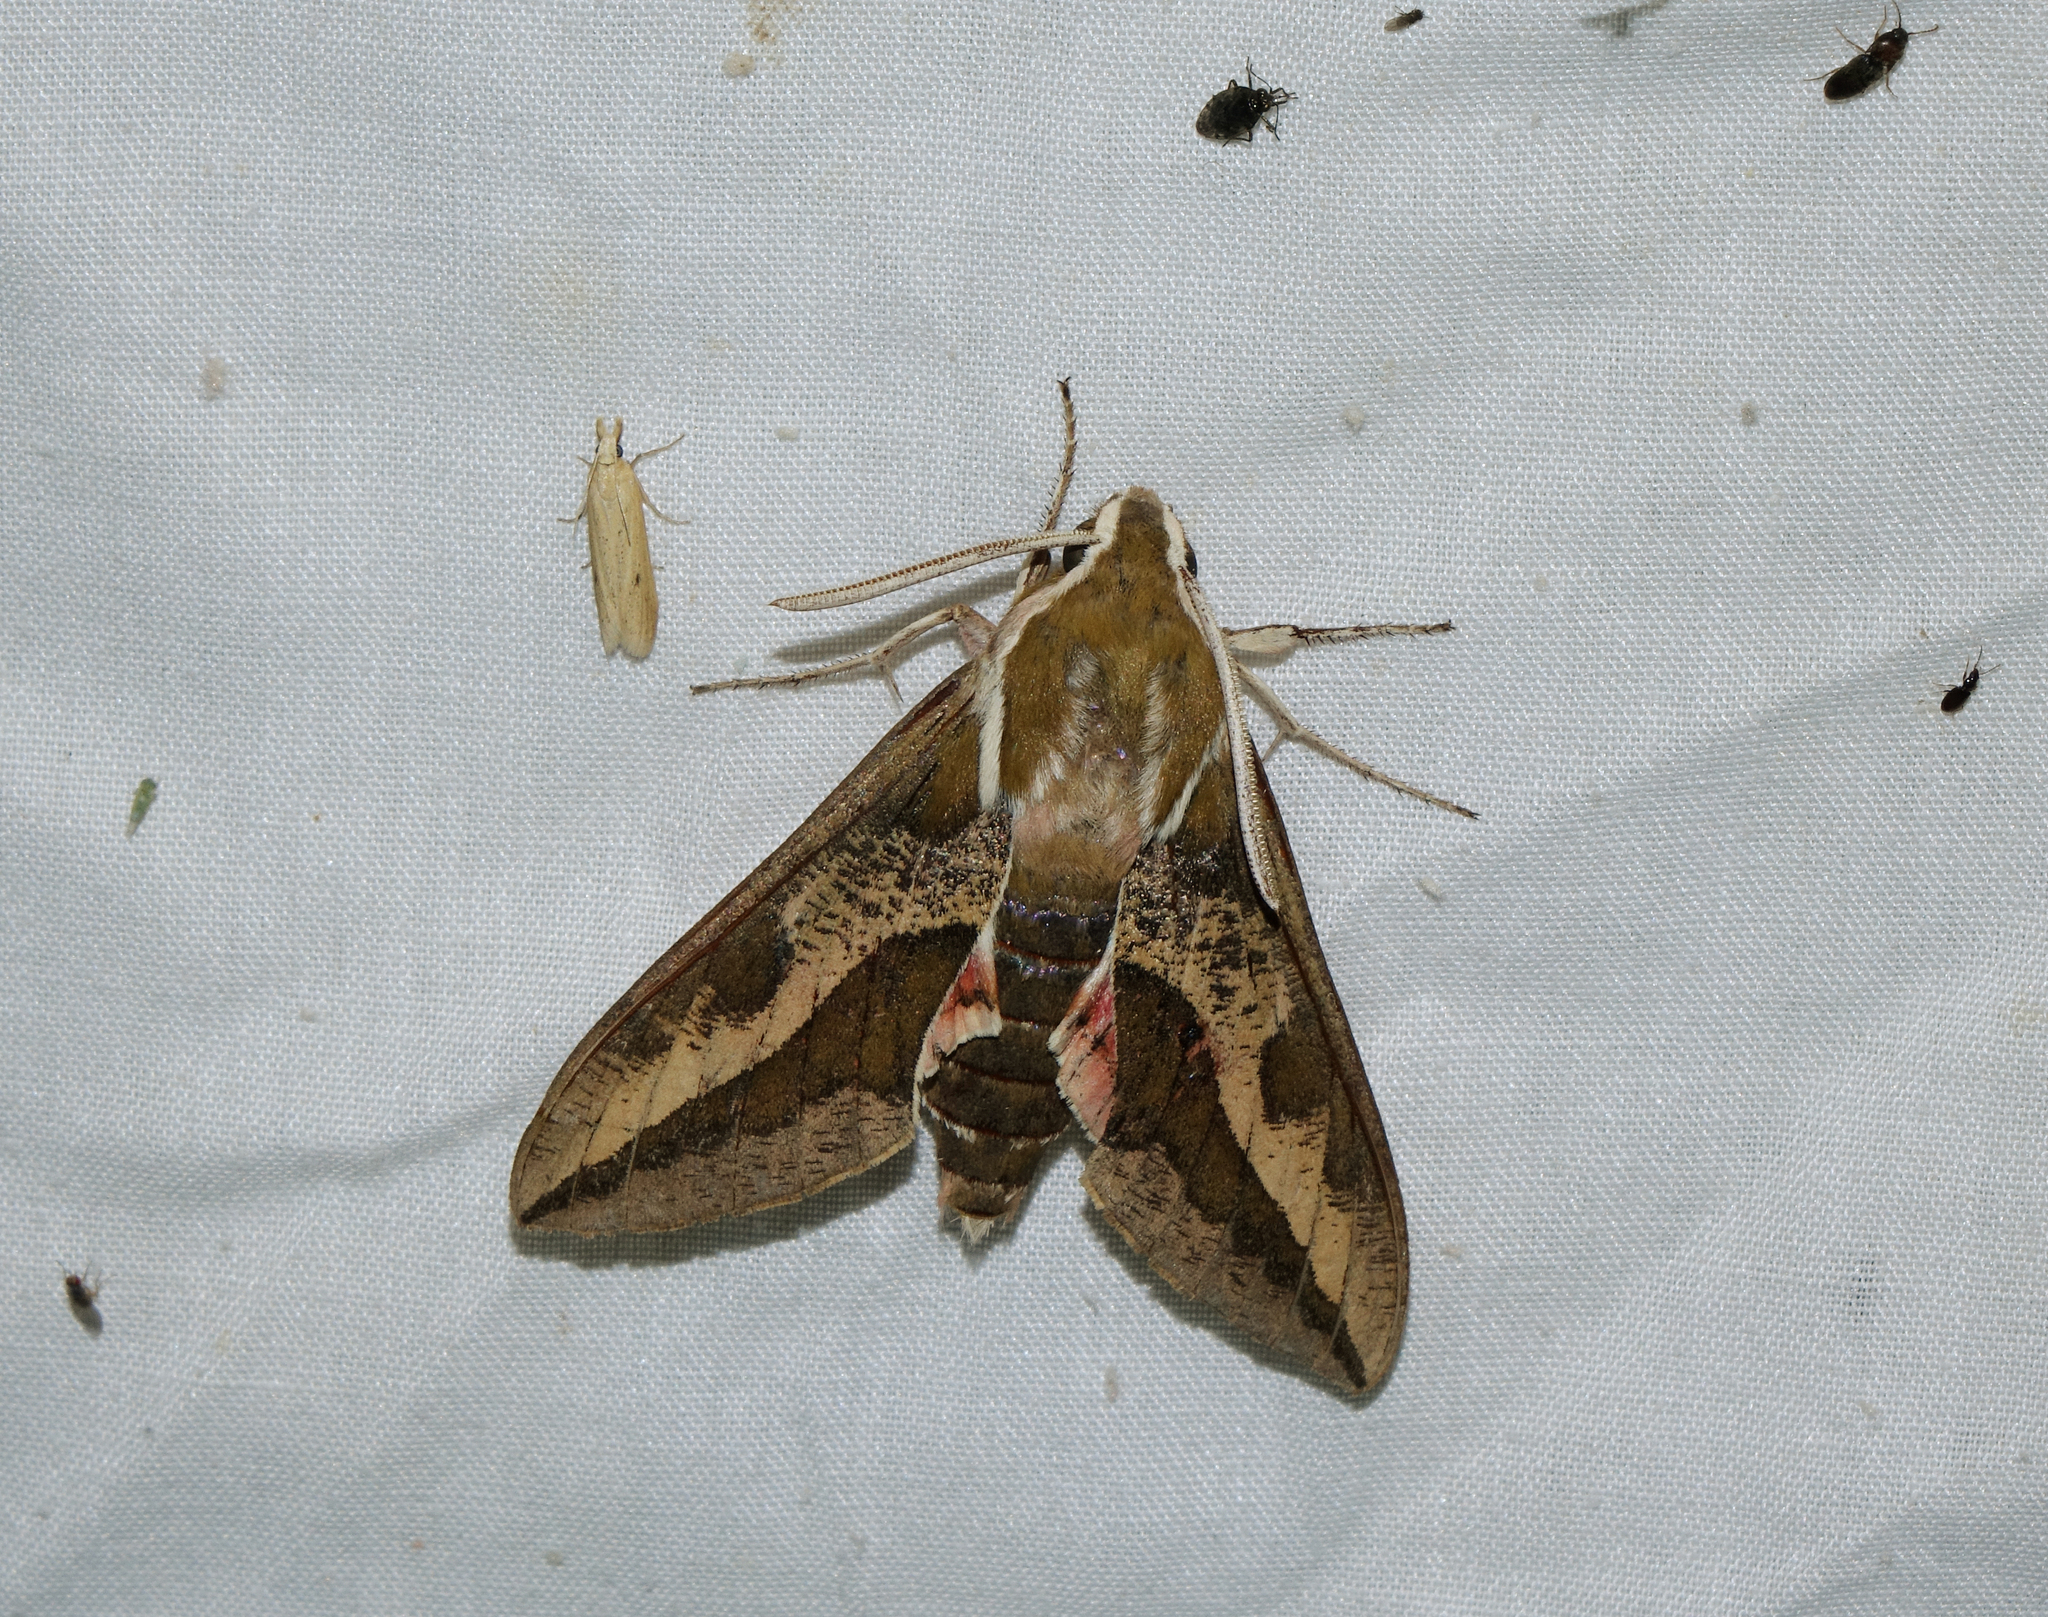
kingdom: Animalia
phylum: Arthropoda
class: Insecta
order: Lepidoptera
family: Sphingidae
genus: Hyles
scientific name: Hyles euphorbiae
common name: Spurge hawk-moth
